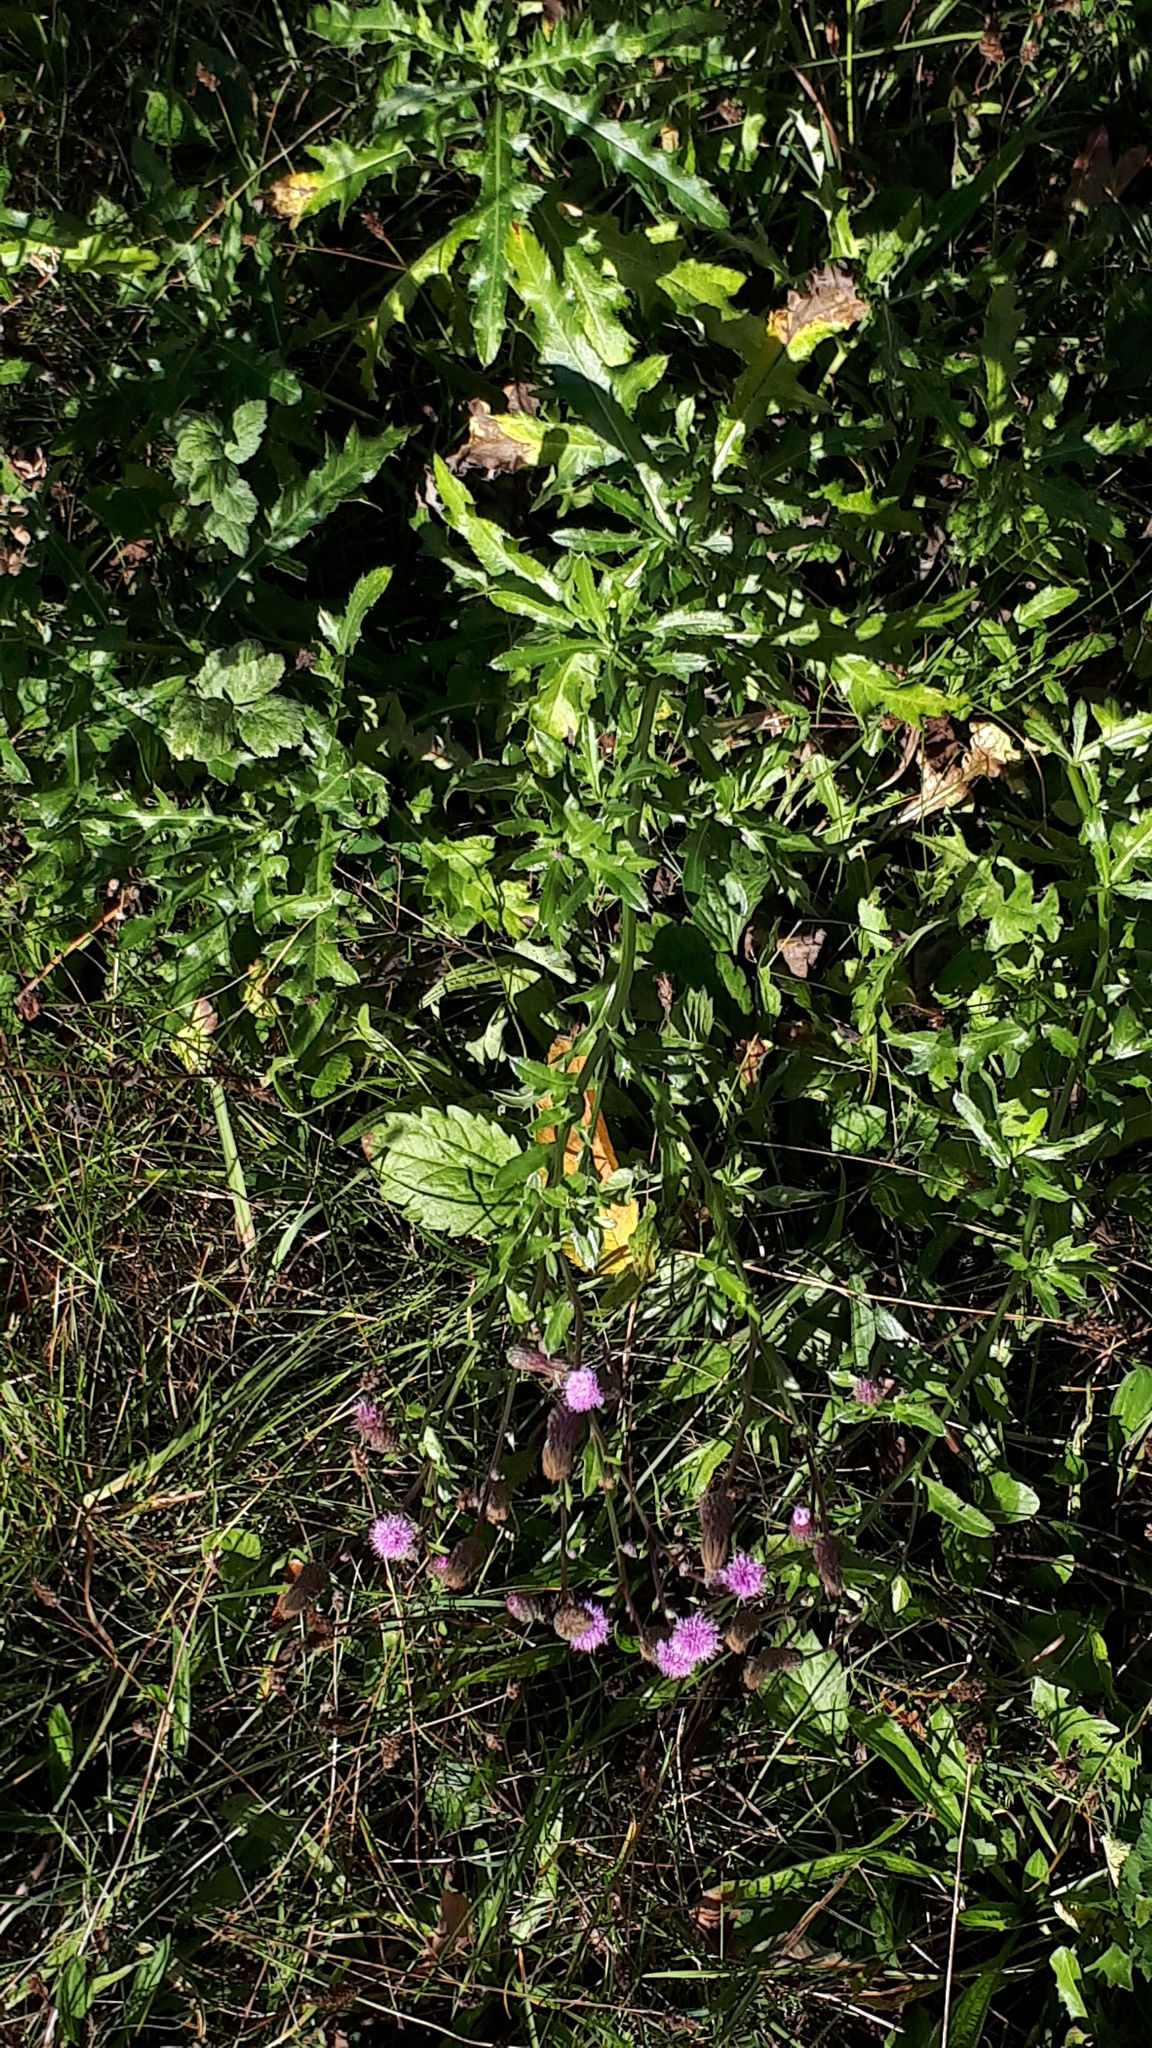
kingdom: Plantae
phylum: Tracheophyta
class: Magnoliopsida
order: Asterales
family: Asteraceae
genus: Cirsium
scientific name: Cirsium arvense
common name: Creeping thistle
